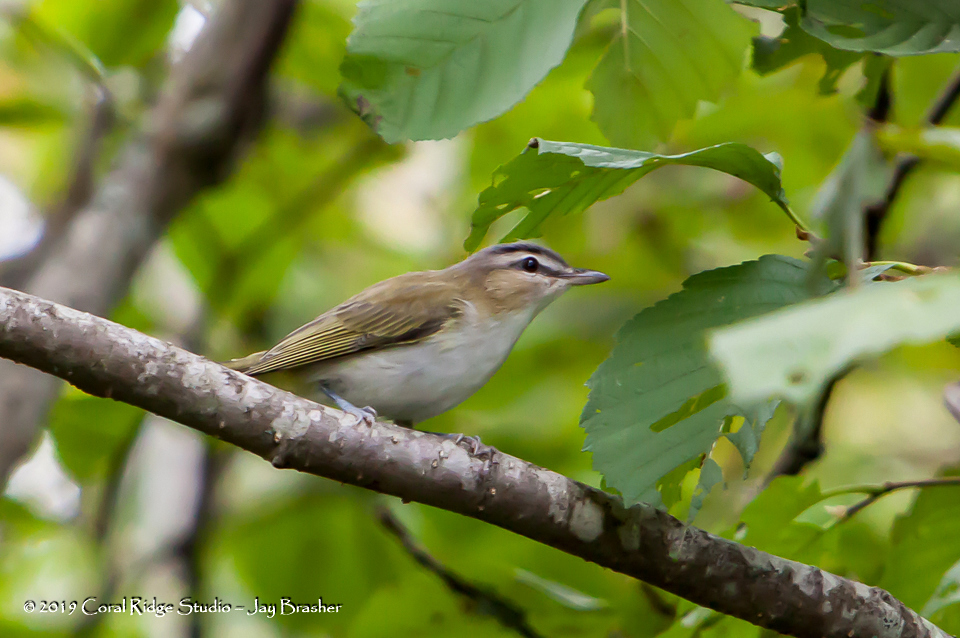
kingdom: Animalia
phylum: Chordata
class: Aves
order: Passeriformes
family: Vireonidae
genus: Vireo
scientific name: Vireo olivaceus
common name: Red-eyed vireo
